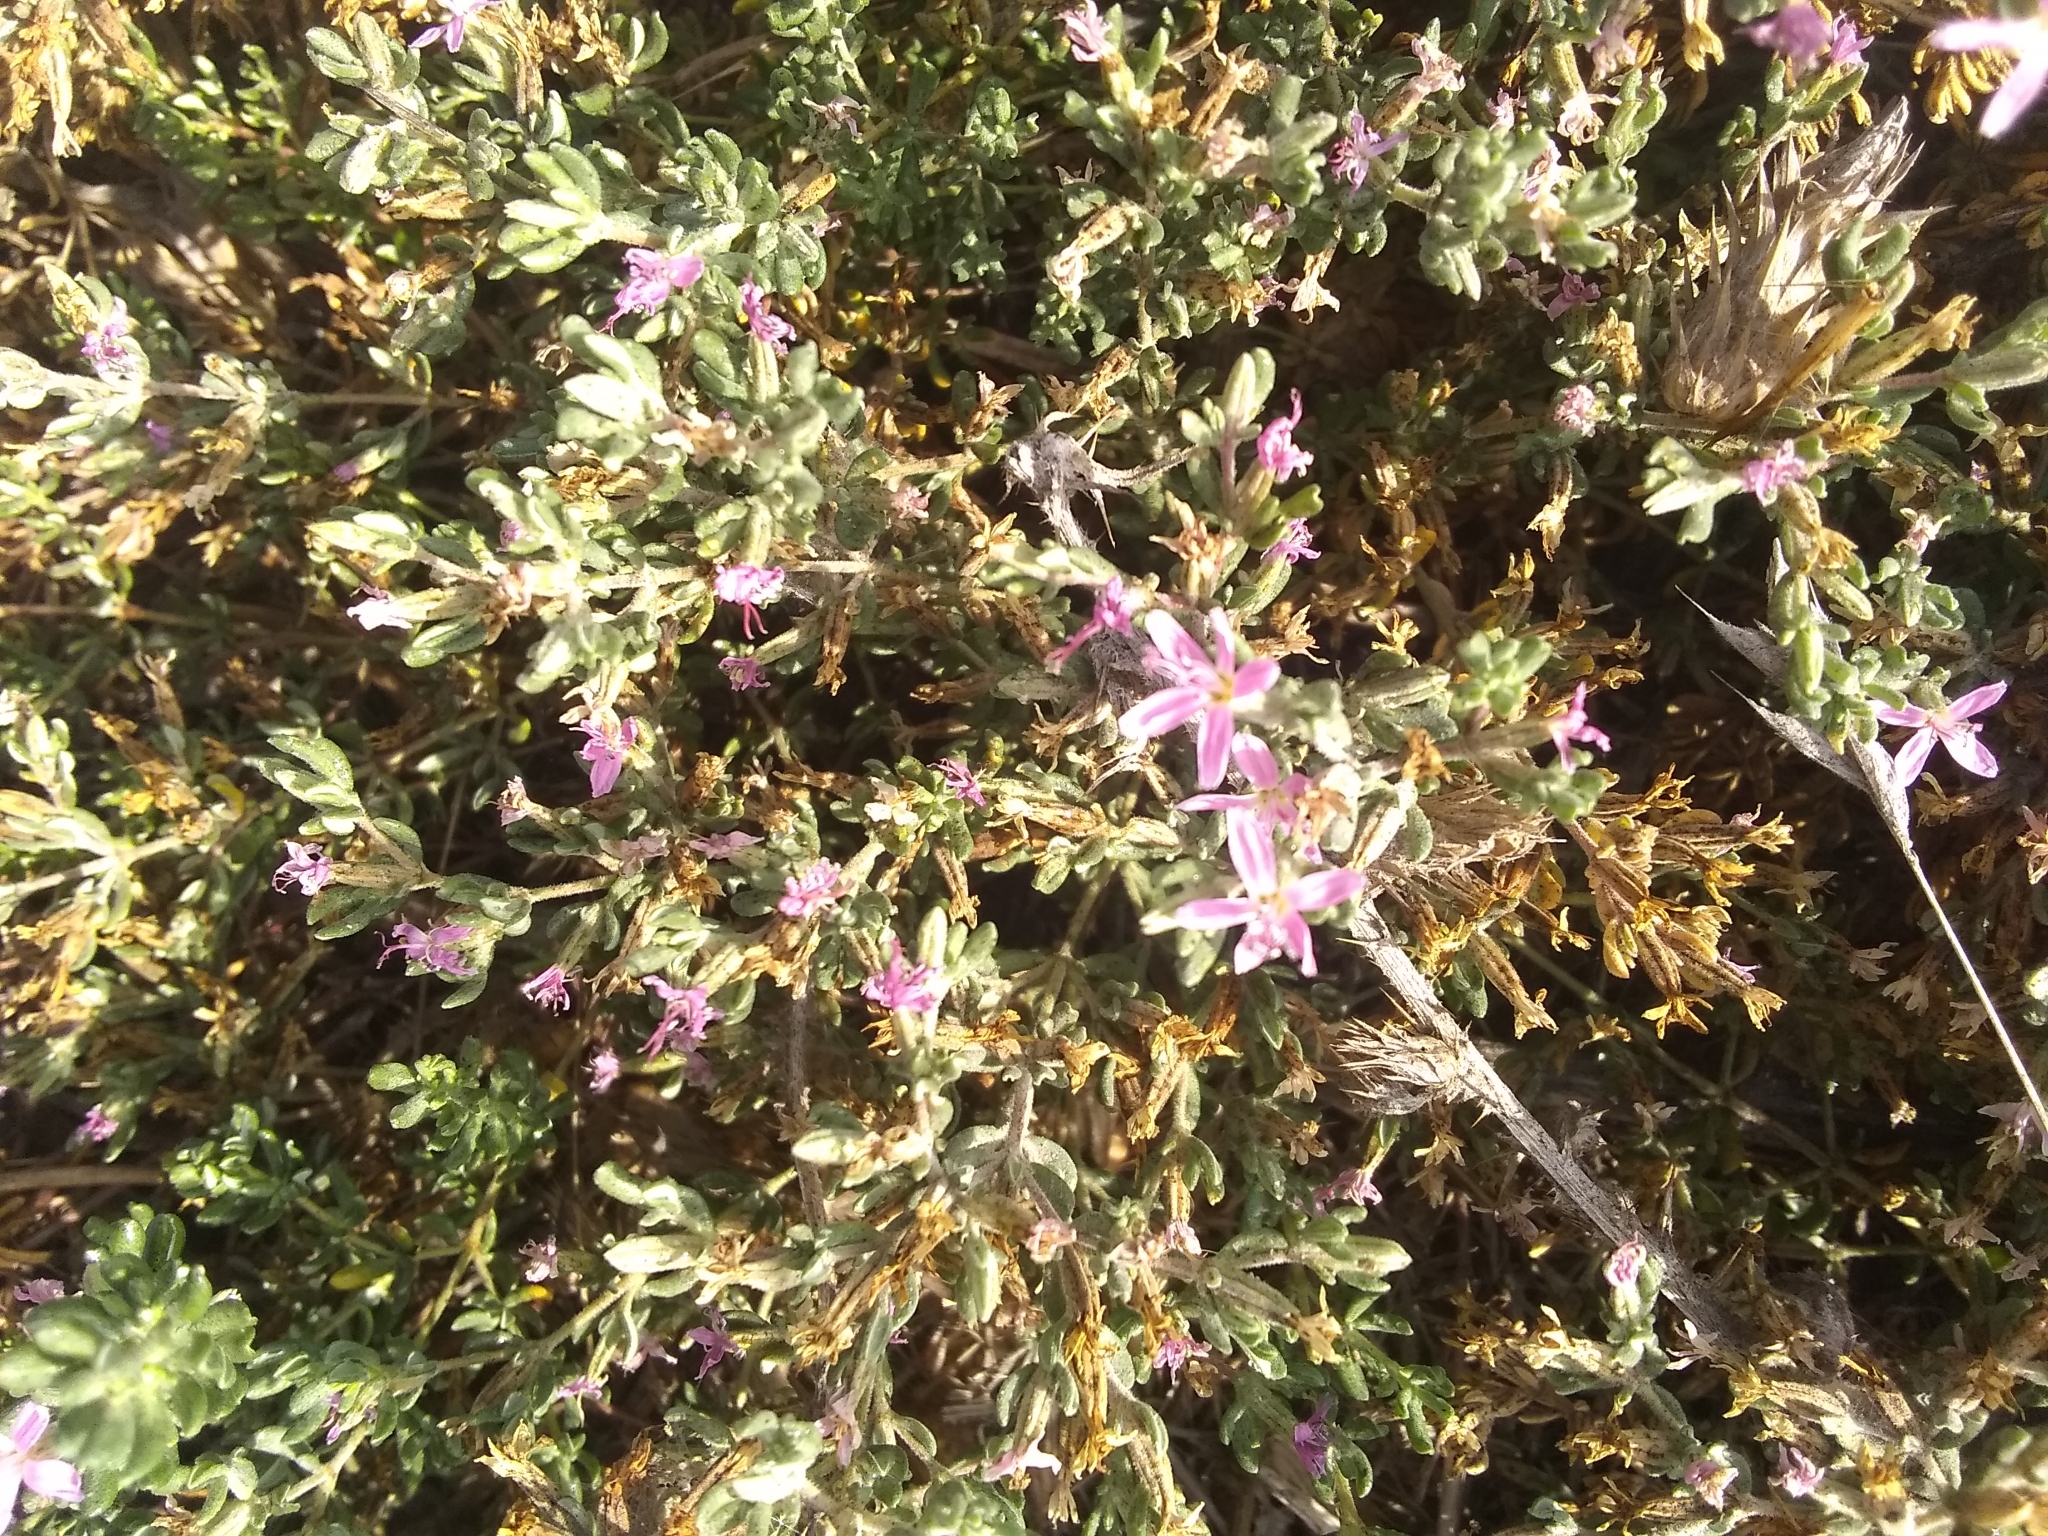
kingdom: Plantae
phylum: Tracheophyta
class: Magnoliopsida
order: Caryophyllales
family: Frankeniaceae
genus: Frankenia
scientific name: Frankenia salina
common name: Alkali seaheath
